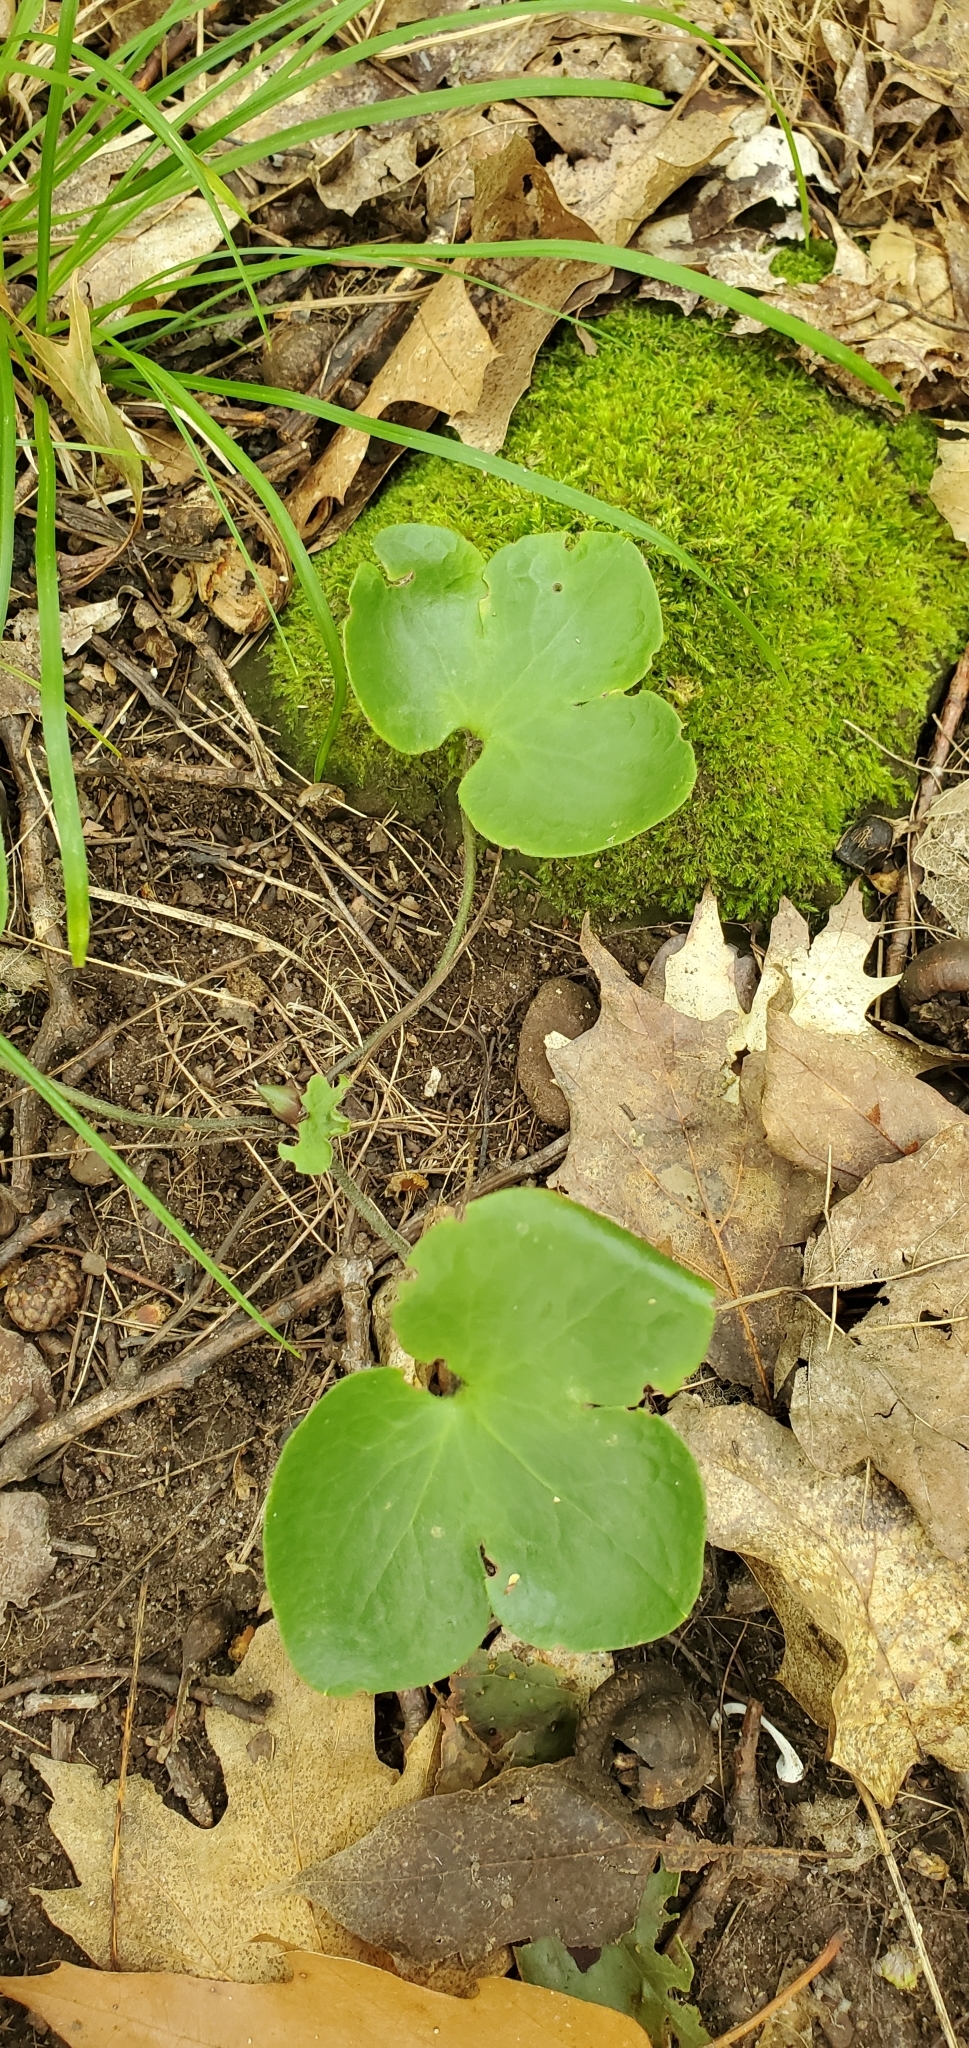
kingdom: Plantae
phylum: Tracheophyta
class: Magnoliopsida
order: Ranunculales
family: Ranunculaceae
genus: Hepatica
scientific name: Hepatica americana
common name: American hepatica
